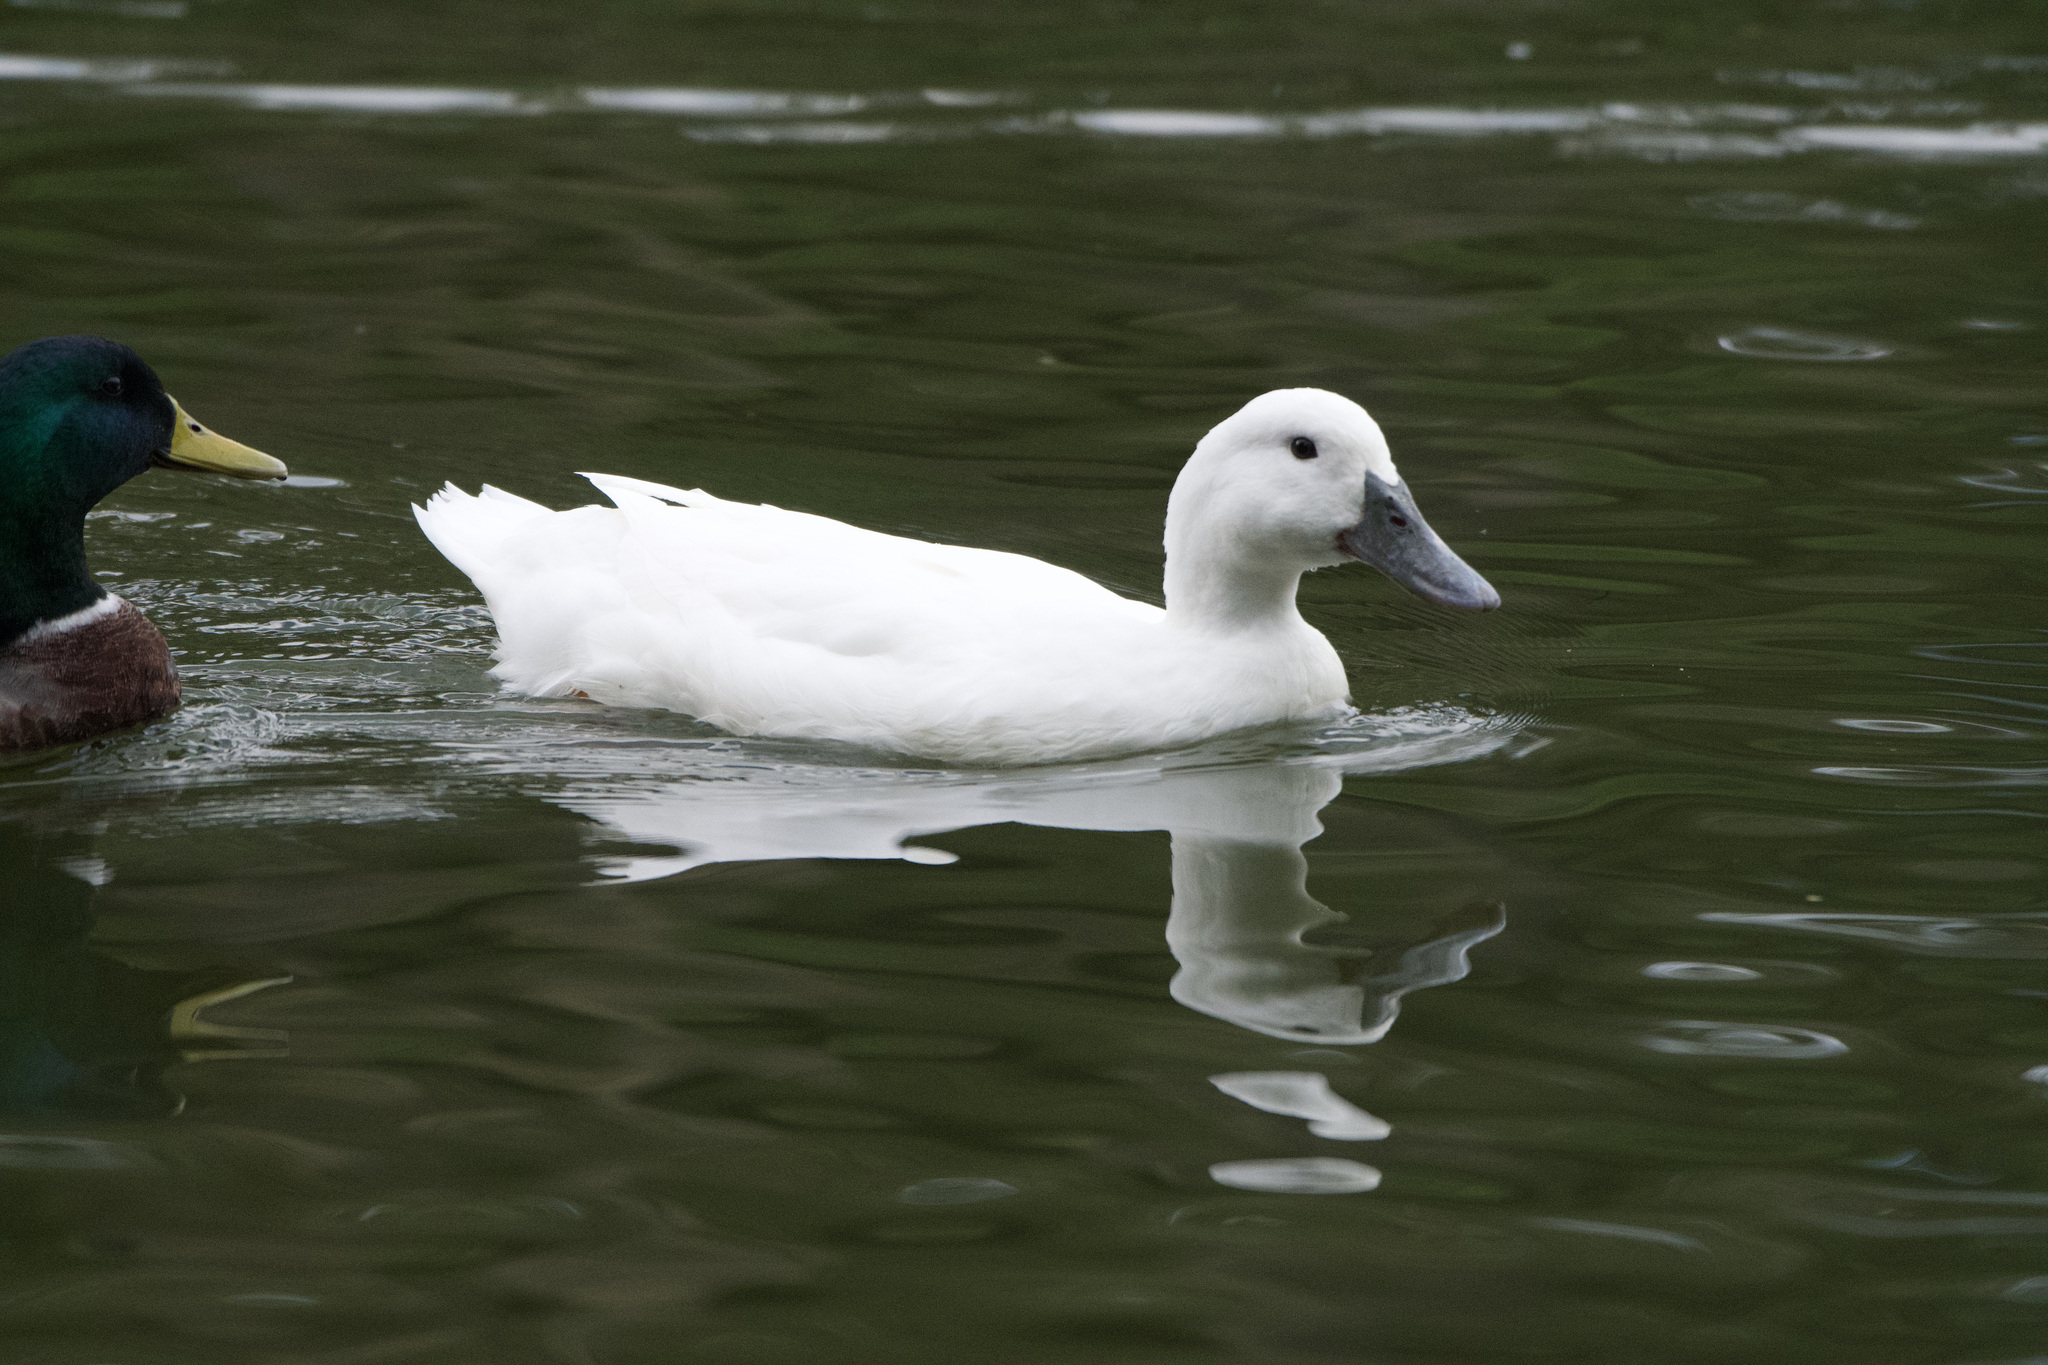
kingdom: Animalia
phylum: Chordata
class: Aves
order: Anseriformes
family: Anatidae
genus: Anas
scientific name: Anas platyrhynchos
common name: Mallard
